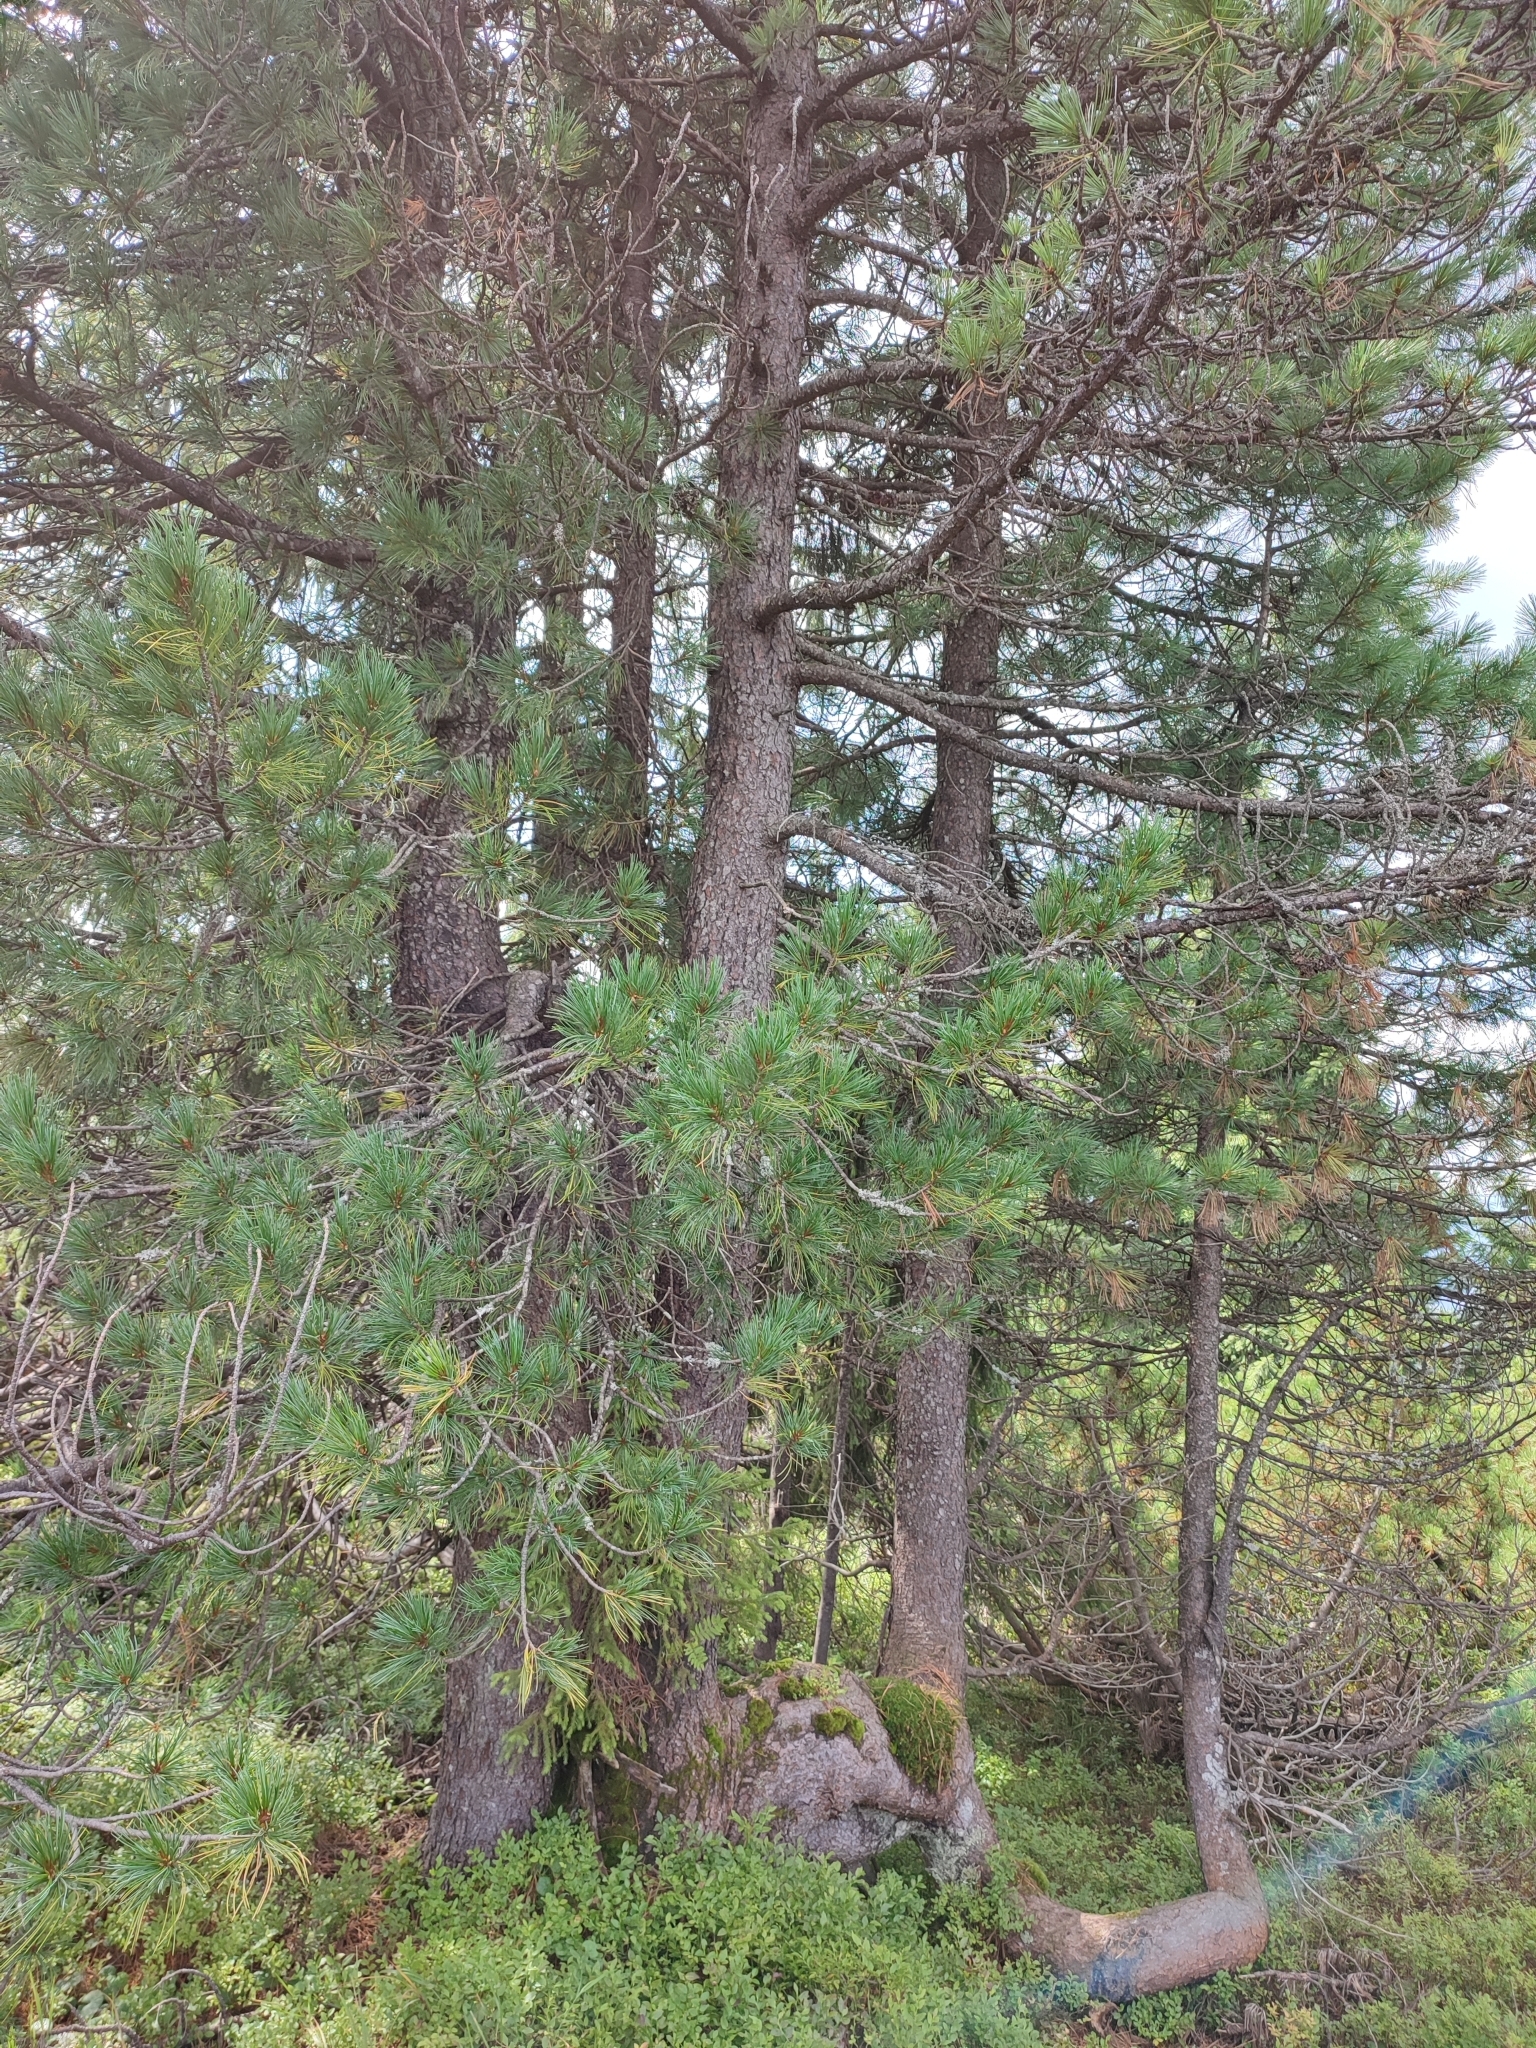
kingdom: Plantae
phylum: Tracheophyta
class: Pinopsida
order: Pinales
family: Pinaceae
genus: Pinus
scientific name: Pinus cembra
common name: Arolla pine
